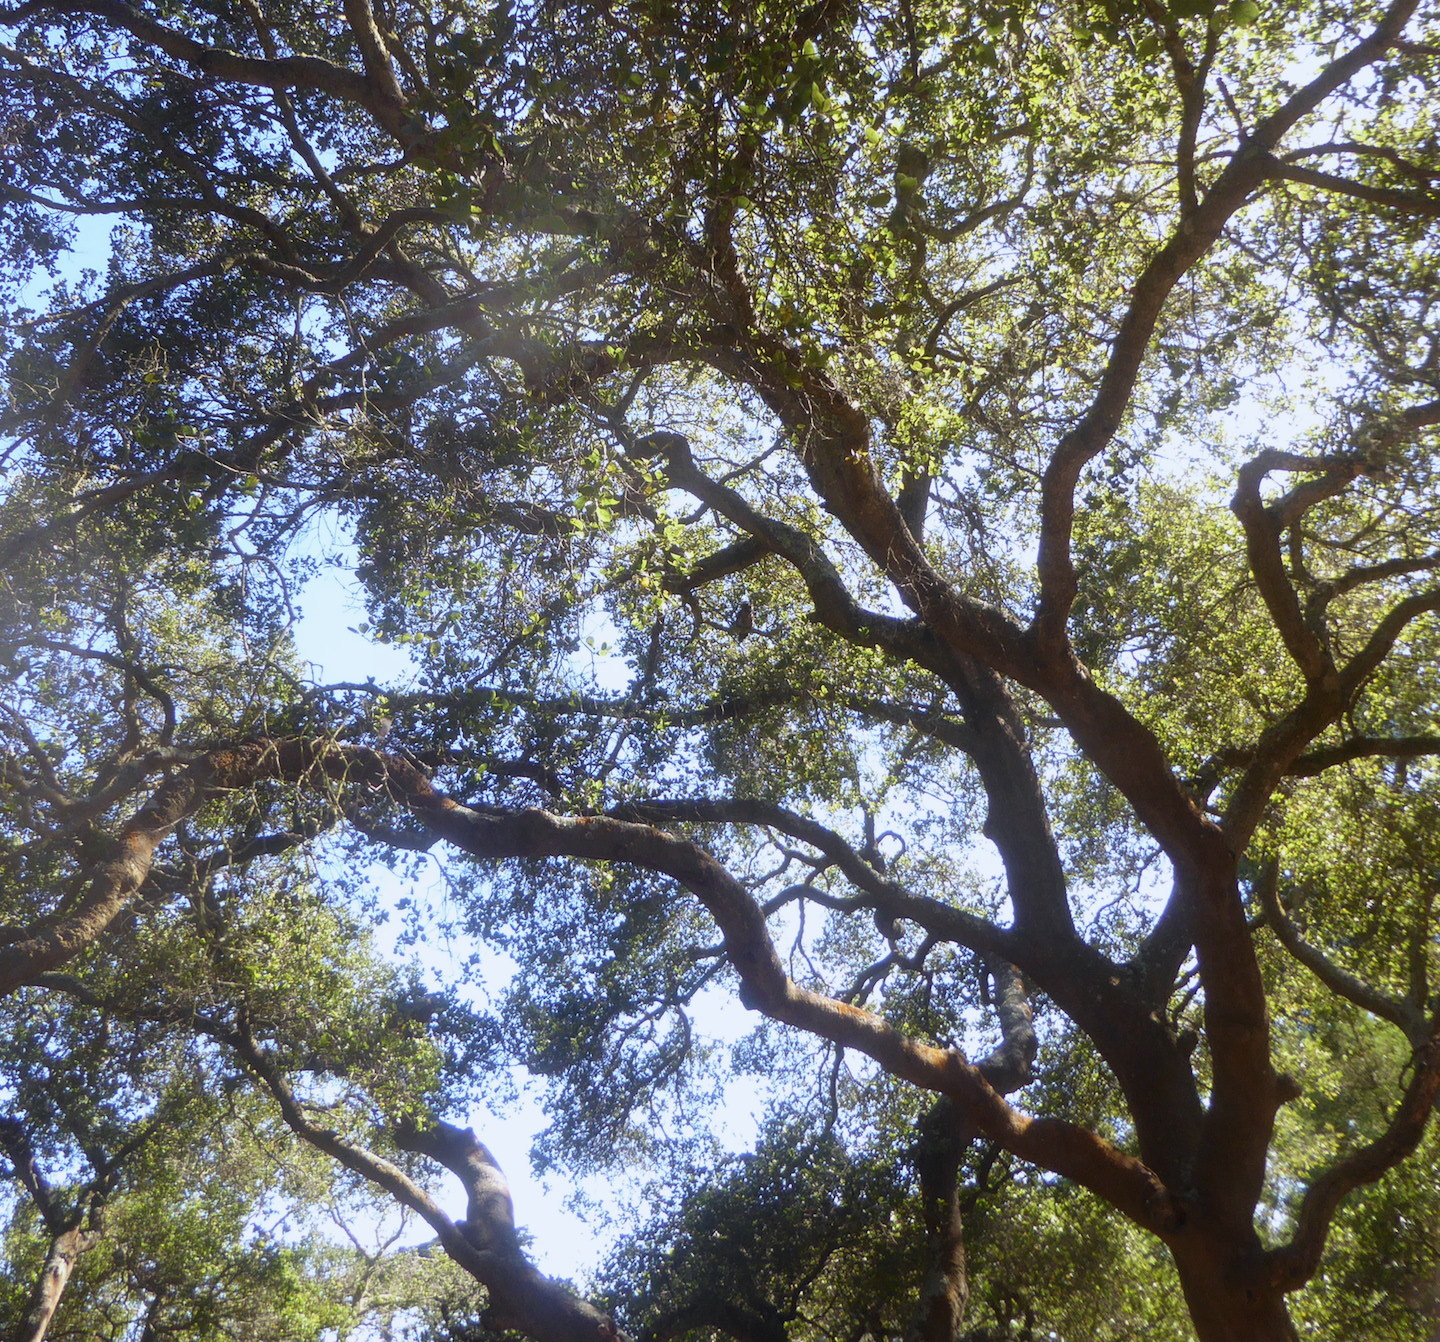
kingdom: Animalia
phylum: Chordata
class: Aves
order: Strigiformes
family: Strigidae
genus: Bubo
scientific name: Bubo virginianus
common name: Great horned owl
